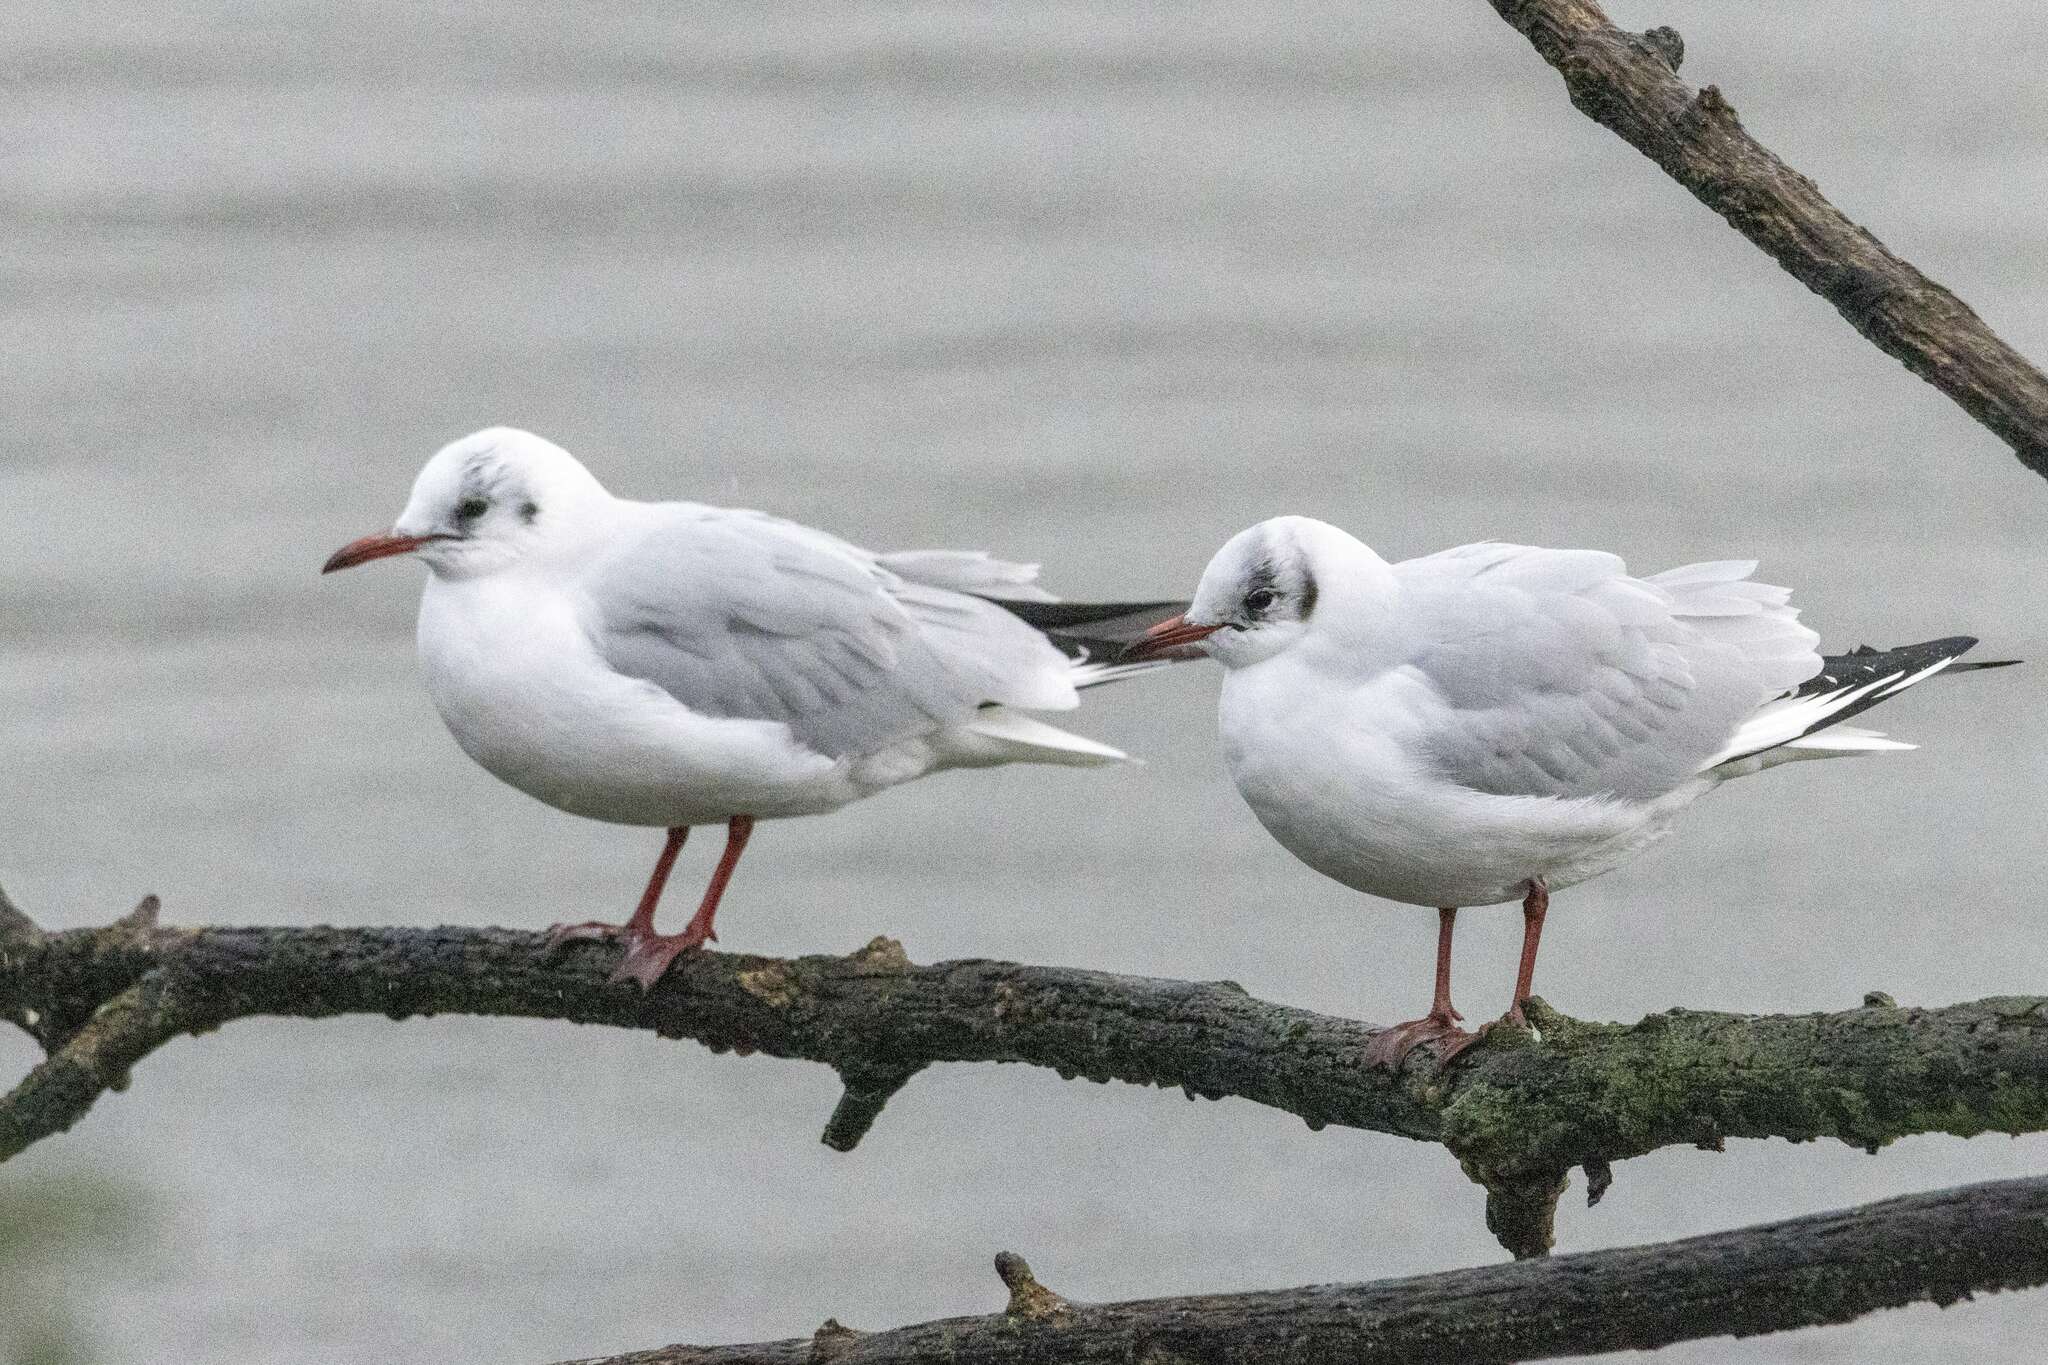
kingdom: Animalia
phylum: Chordata
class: Aves
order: Charadriiformes
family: Laridae
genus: Chroicocephalus
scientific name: Chroicocephalus ridibundus
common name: Black-headed gull
